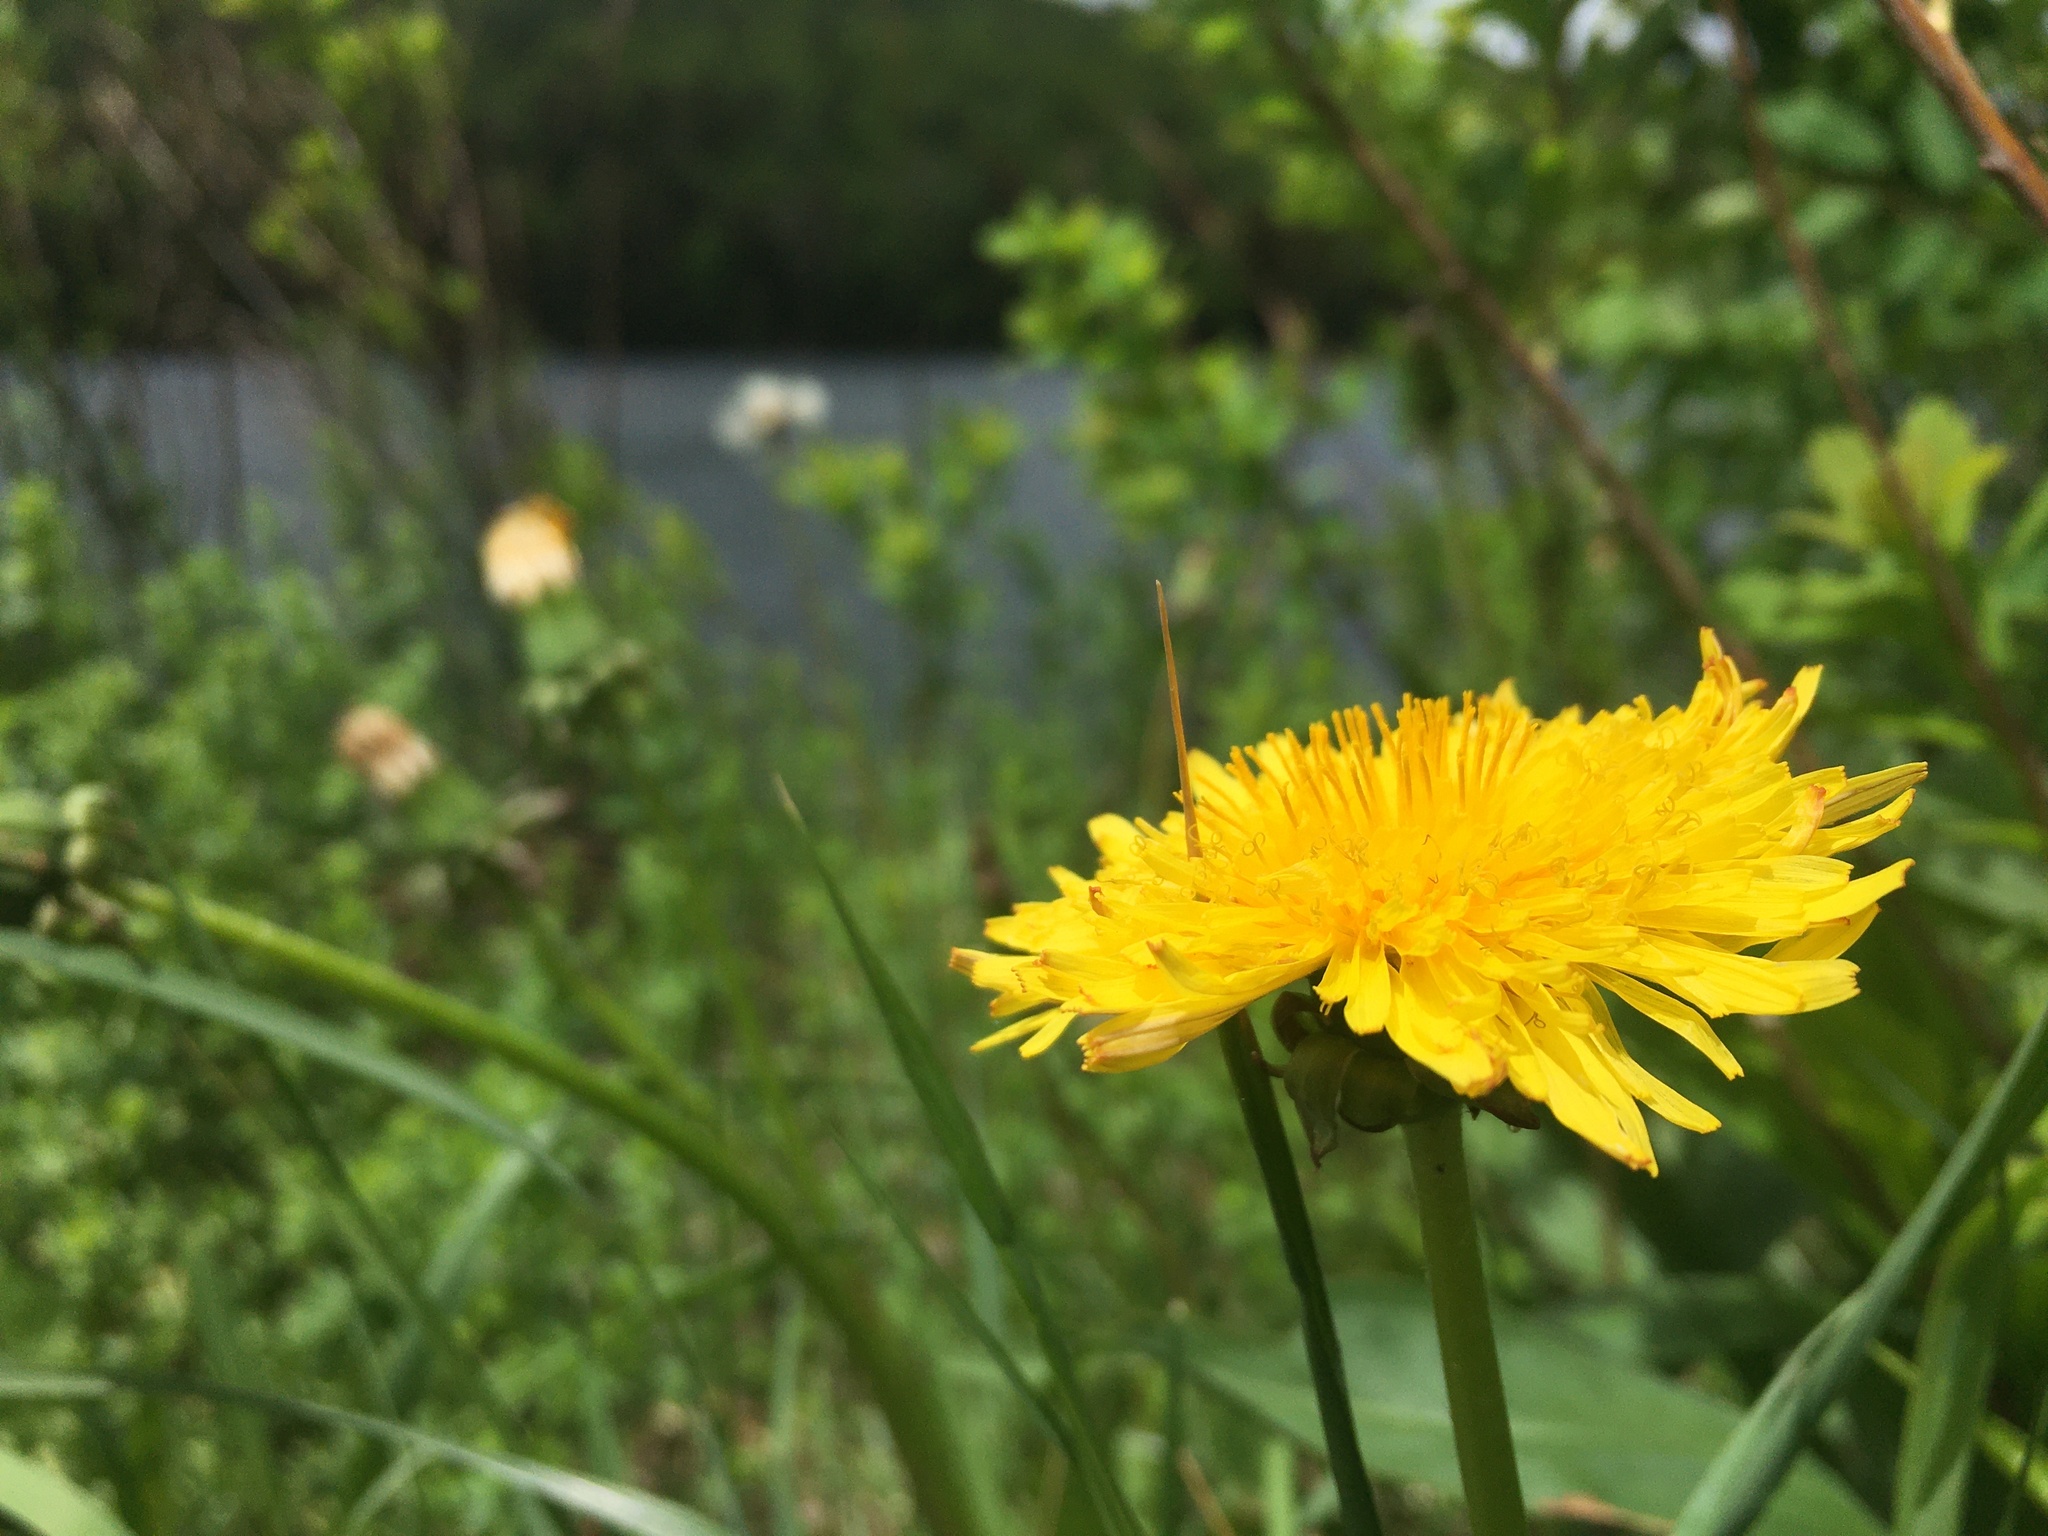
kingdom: Plantae
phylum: Tracheophyta
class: Magnoliopsida
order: Asterales
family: Asteraceae
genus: Taraxacum
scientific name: Taraxacum officinale
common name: Common dandelion
